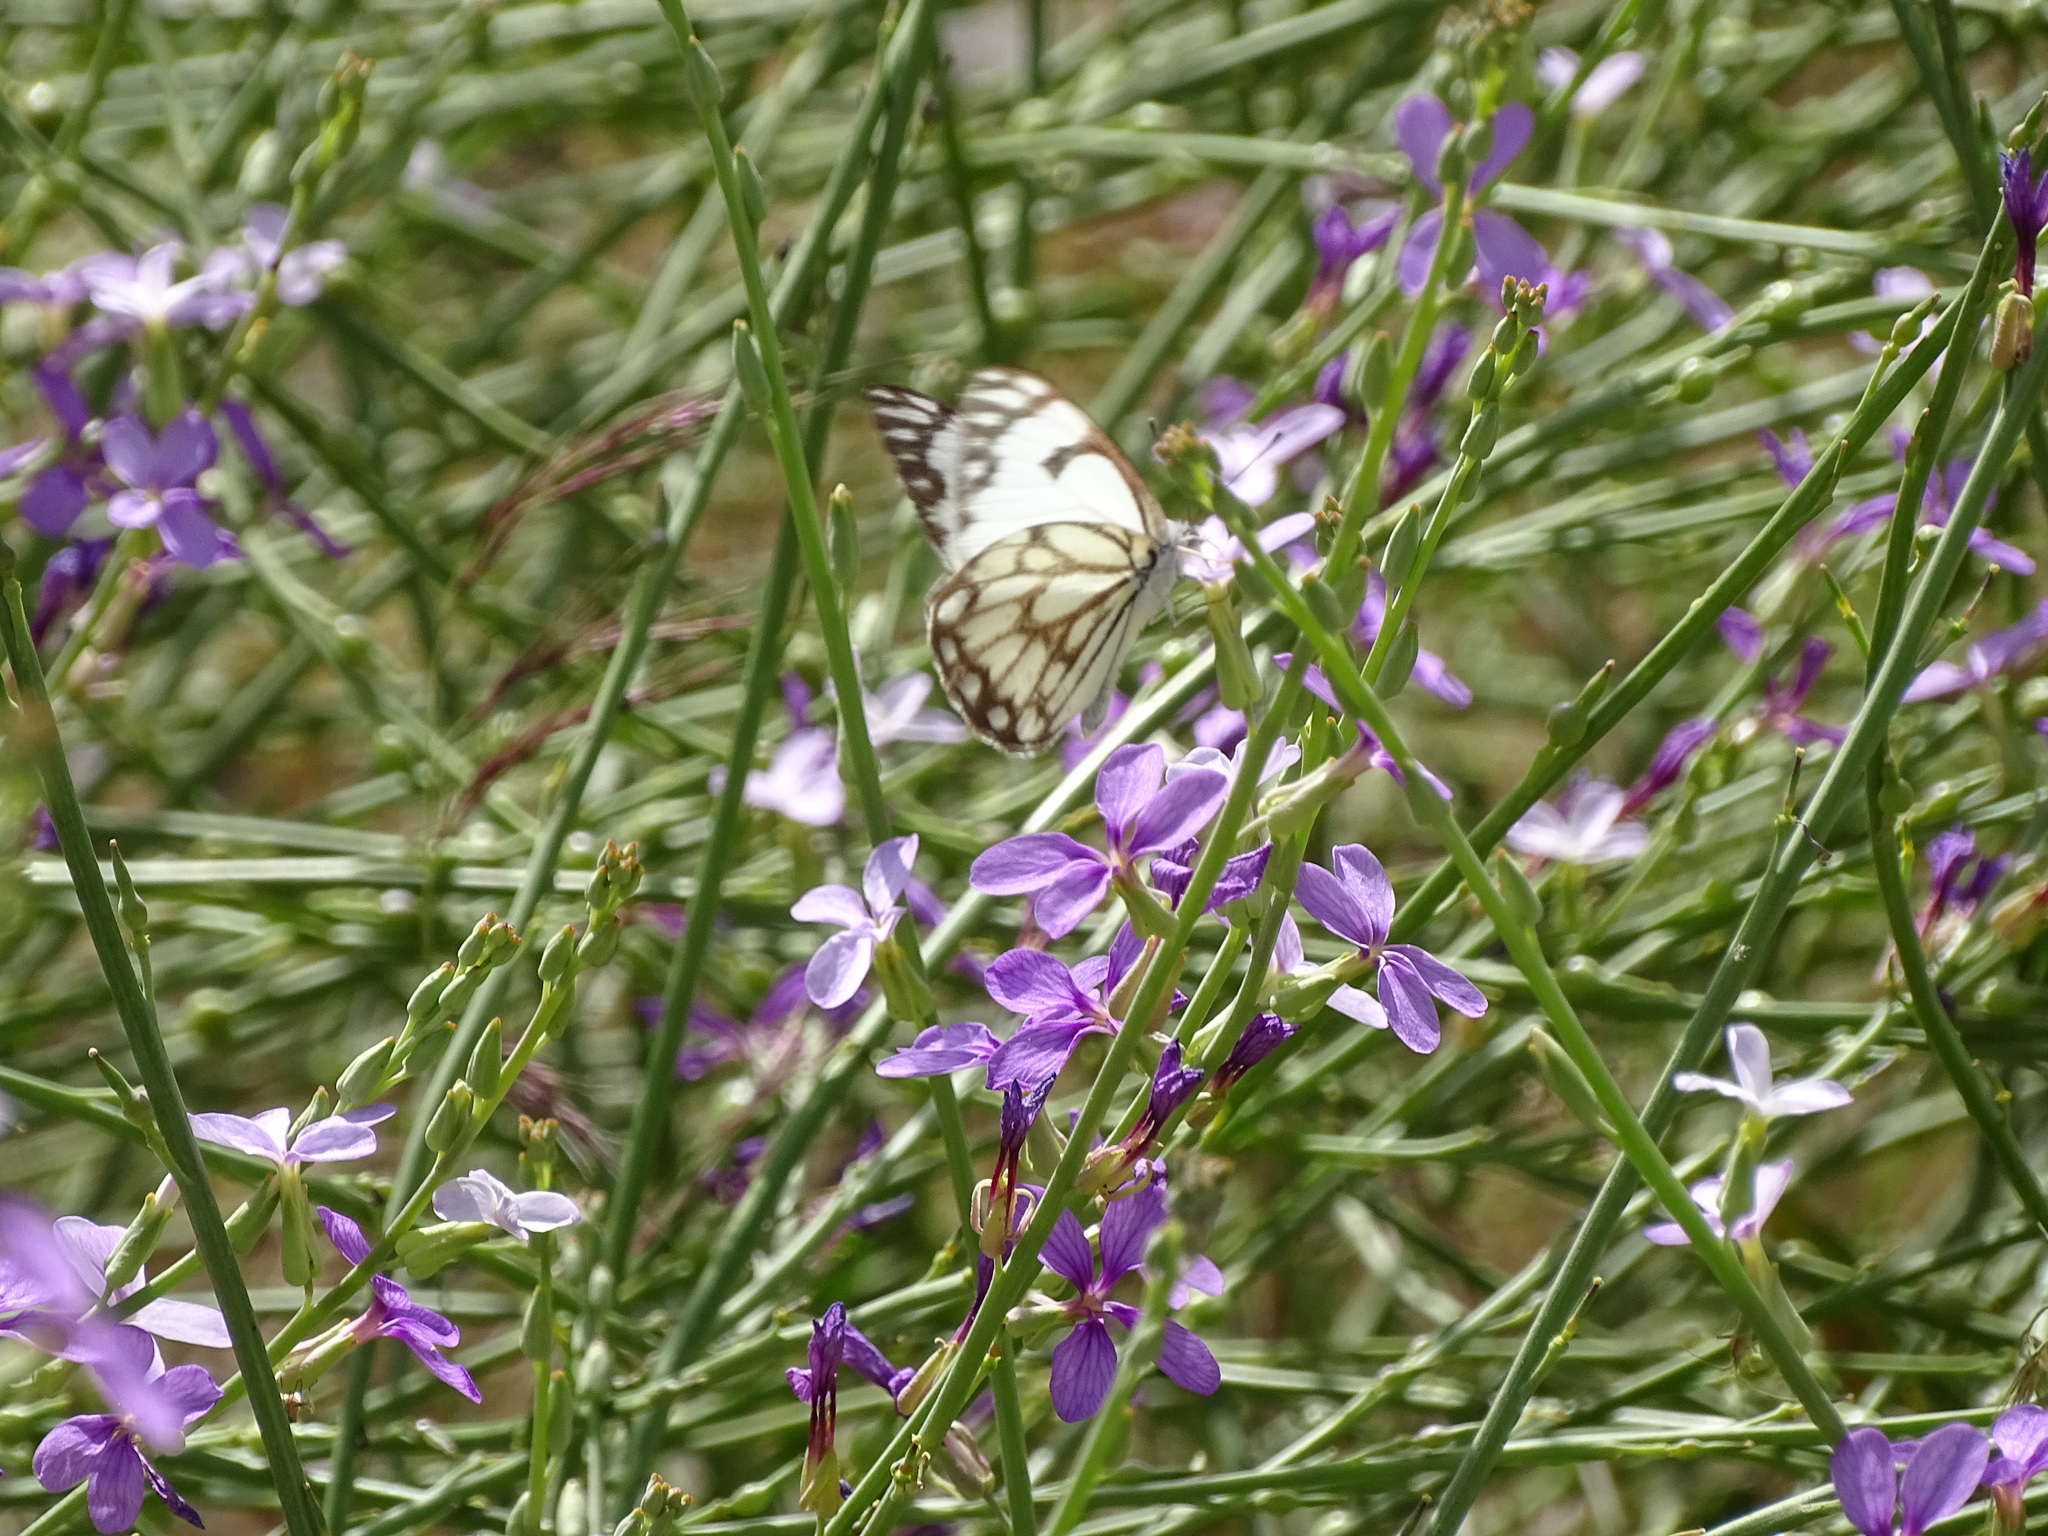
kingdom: Animalia
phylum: Arthropoda
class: Insecta
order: Lepidoptera
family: Pieridae
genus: Belenois
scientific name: Belenois aurota
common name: Brown-veined white
